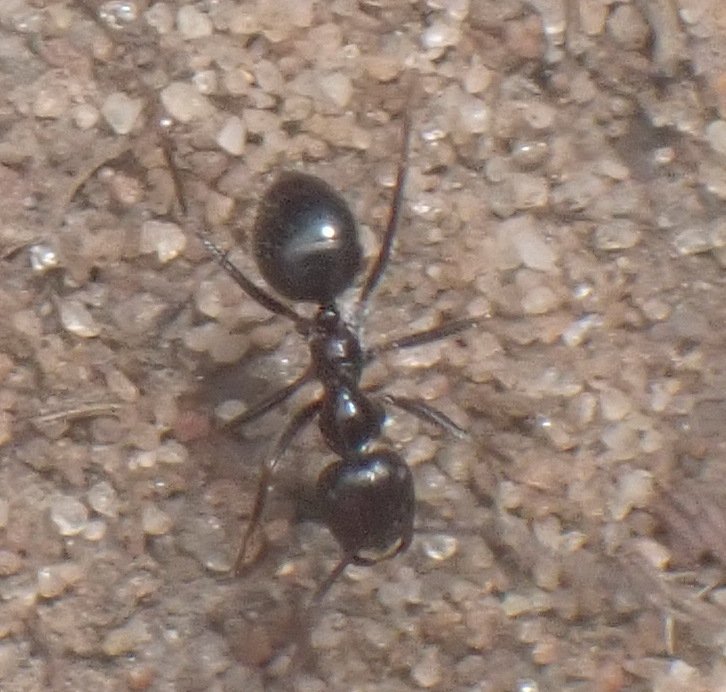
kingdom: Animalia
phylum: Arthropoda
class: Insecta
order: Hymenoptera
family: Formicidae
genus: Anoplolepis
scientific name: Anoplolepis steingroeveri
